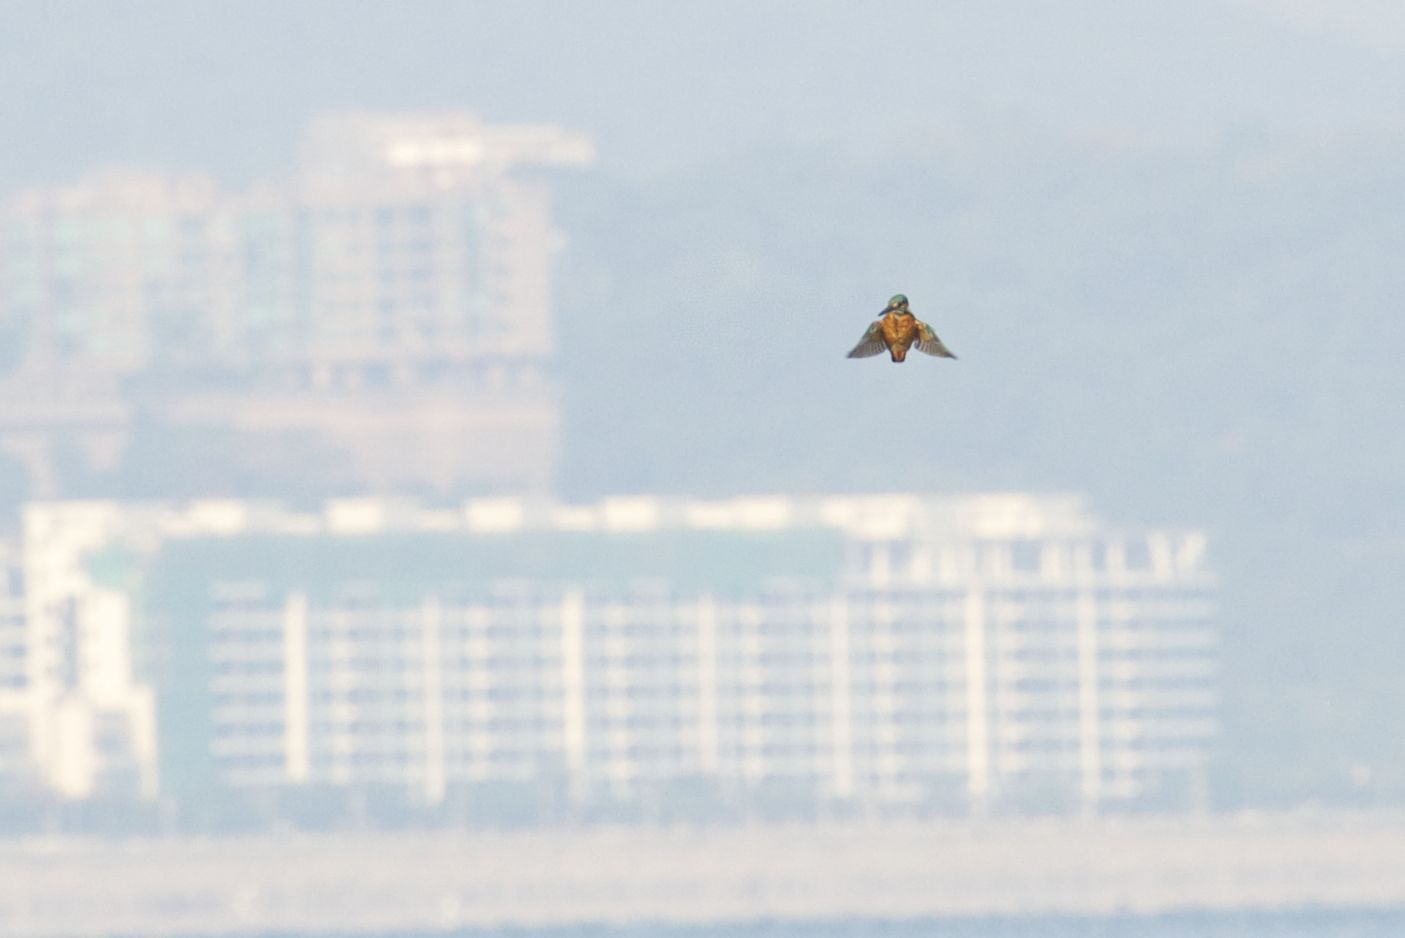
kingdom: Animalia
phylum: Chordata
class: Aves
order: Coraciiformes
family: Alcedinidae
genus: Alcedo
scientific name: Alcedo atthis
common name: Common kingfisher
